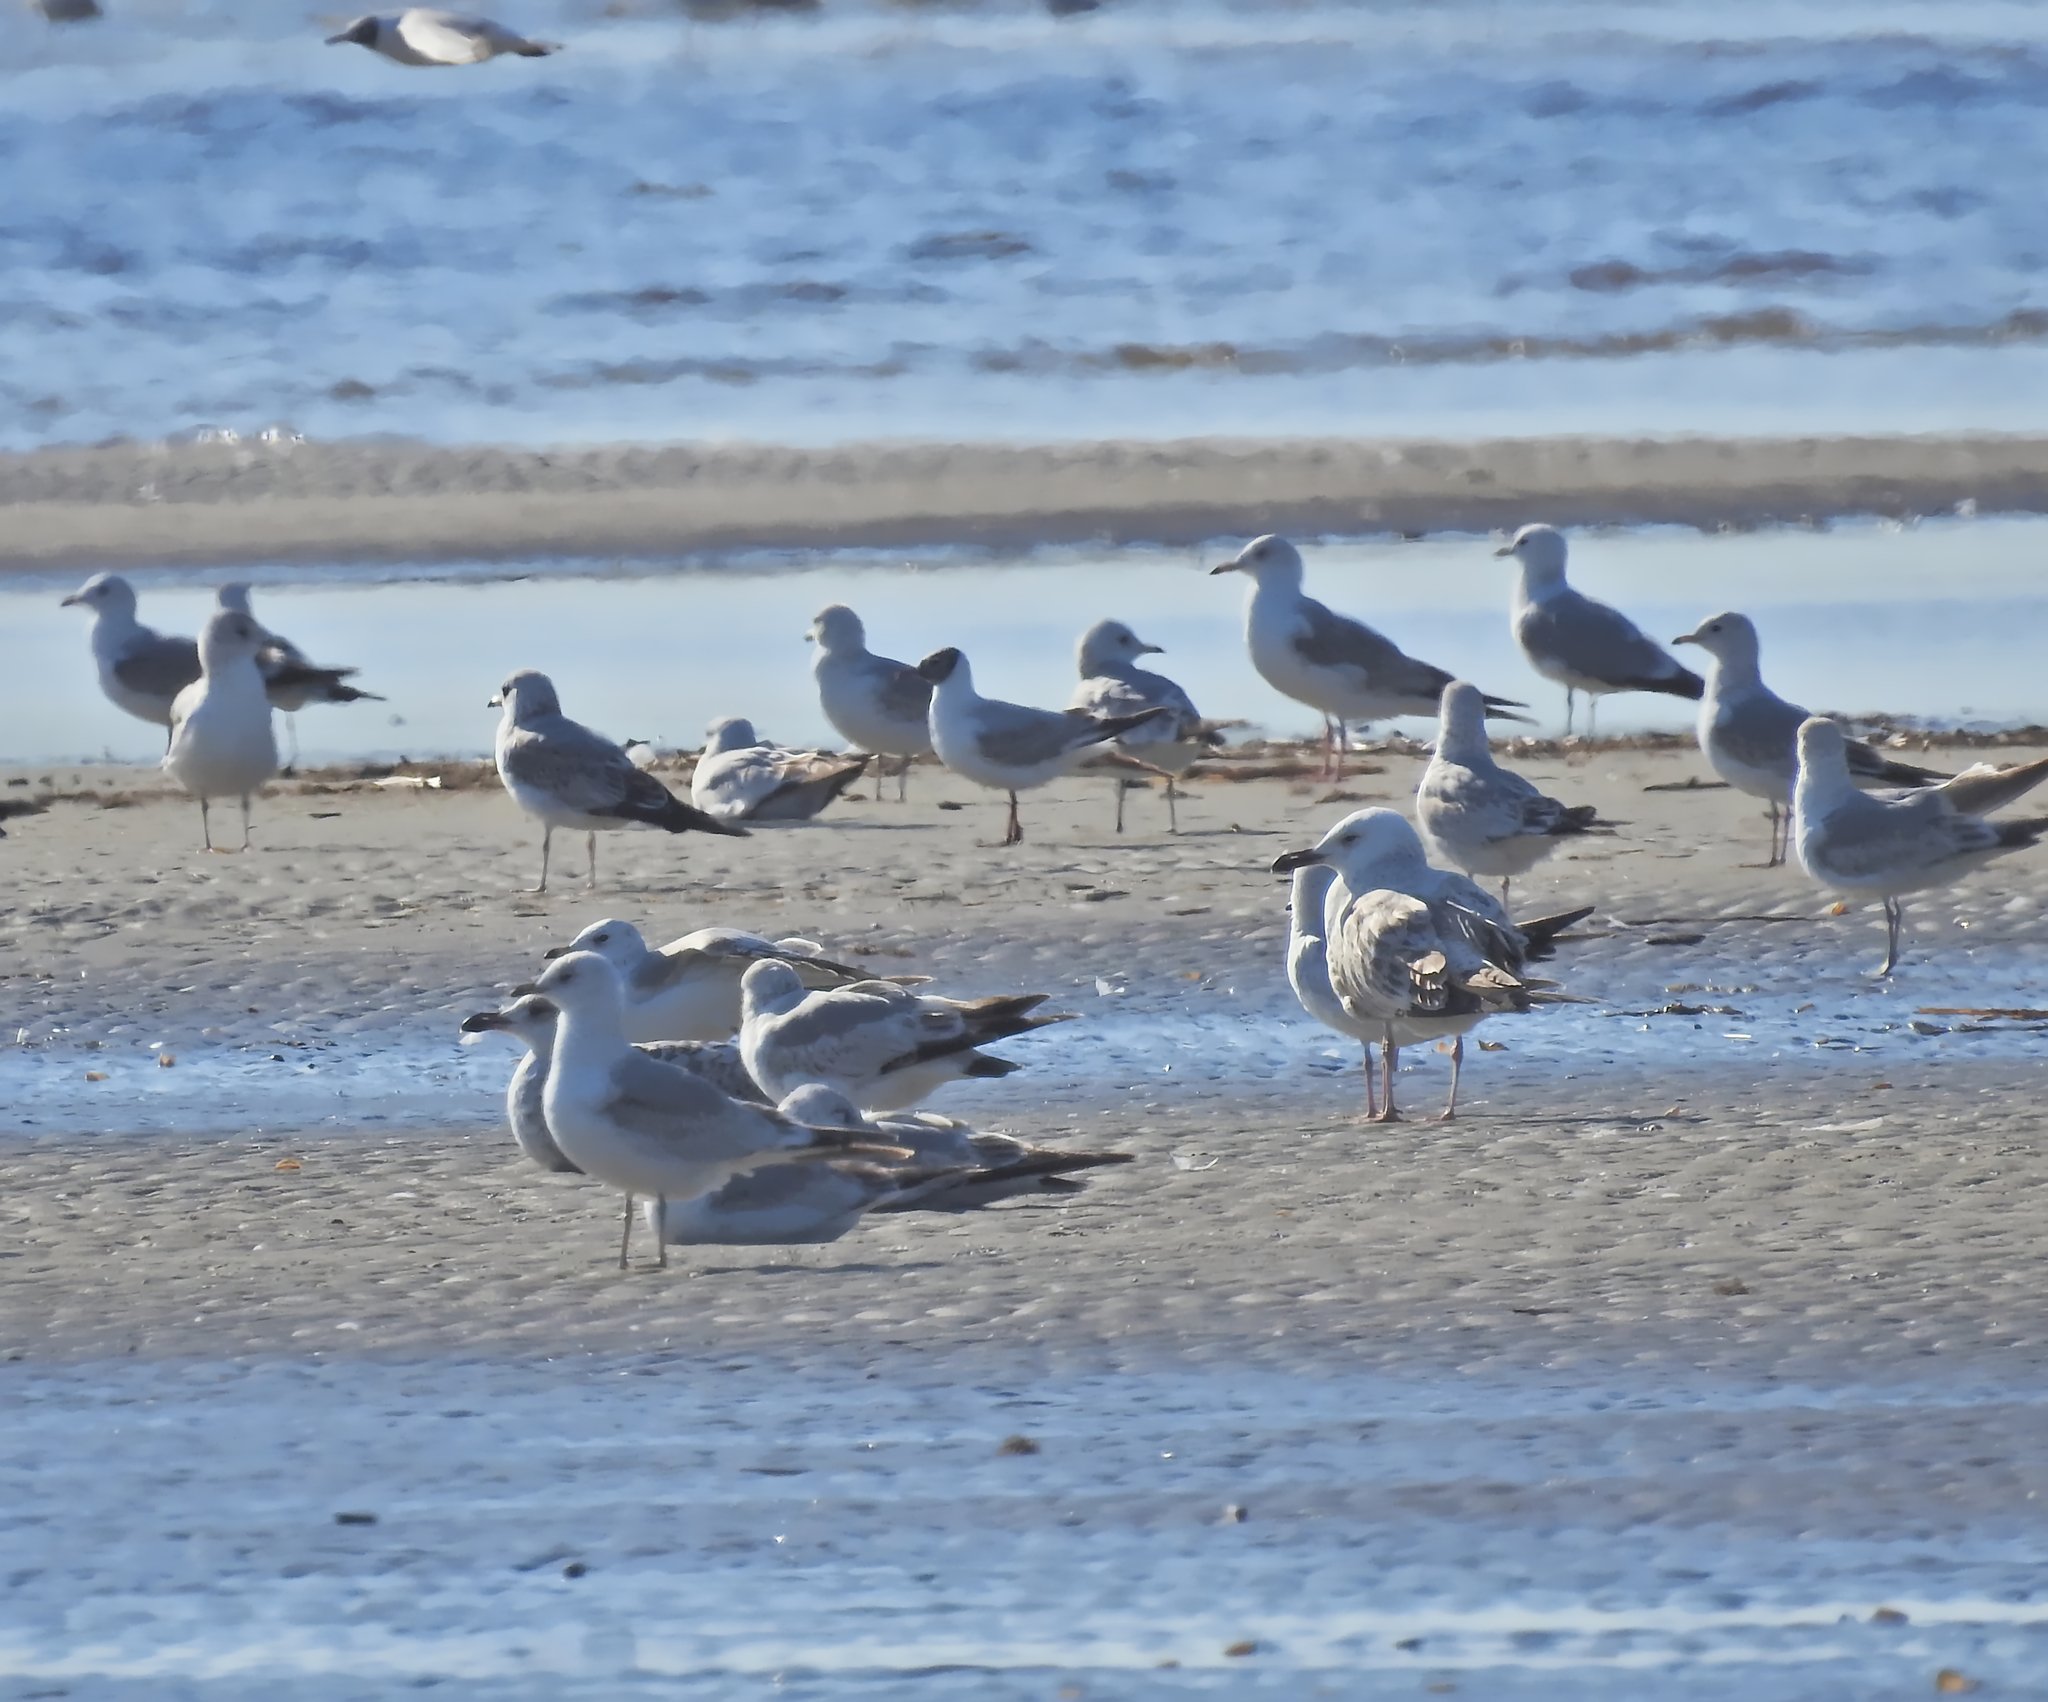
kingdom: Animalia
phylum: Chordata
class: Aves
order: Charadriiformes
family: Laridae
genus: Larus
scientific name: Larus canus
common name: Mew gull
